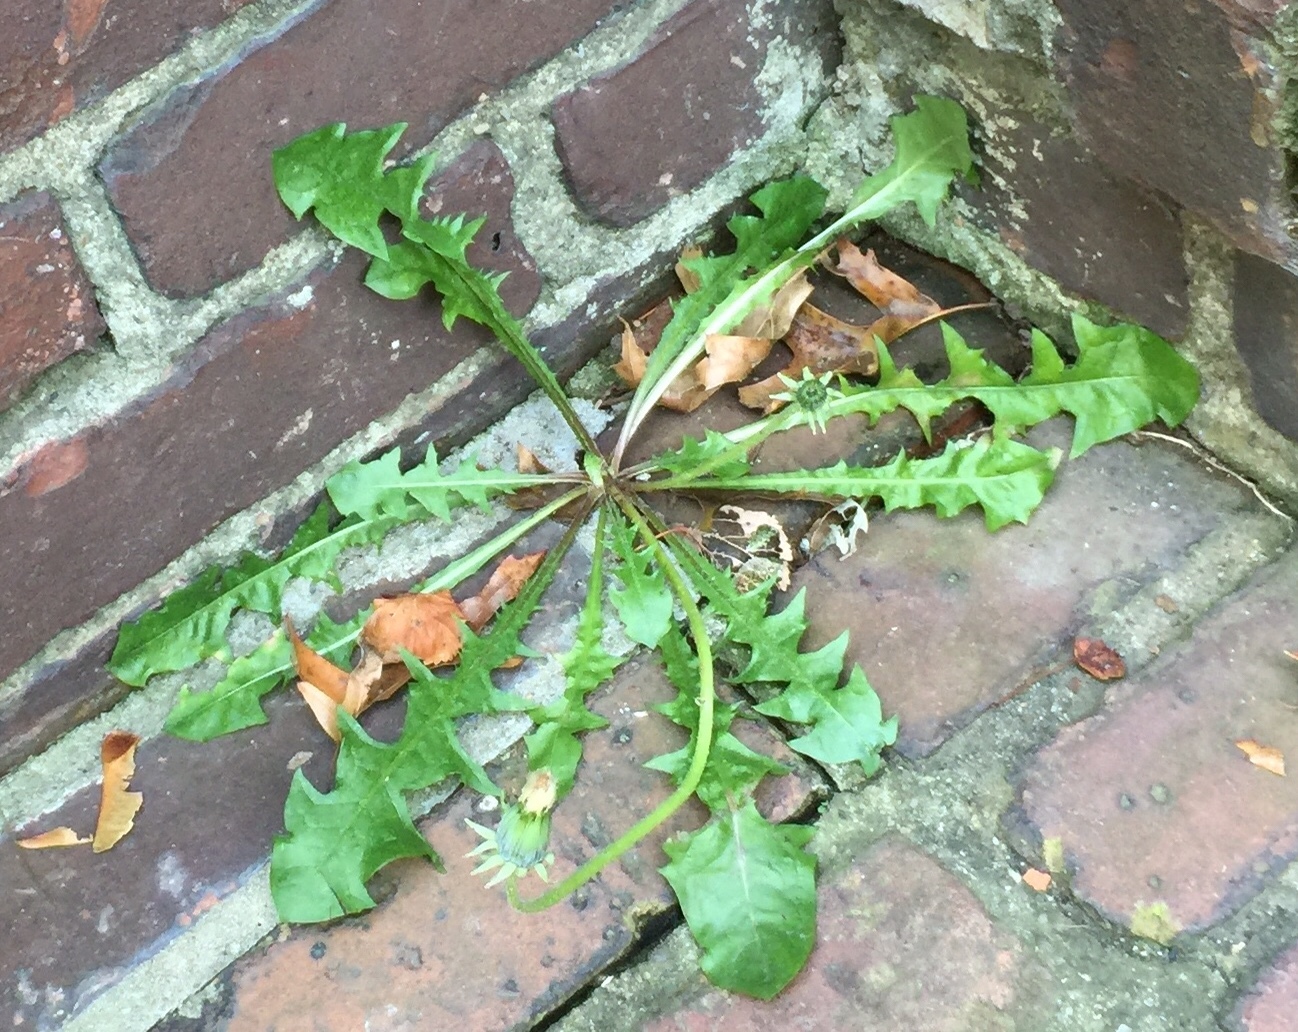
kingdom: Plantae
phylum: Tracheophyta
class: Magnoliopsida
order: Asterales
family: Asteraceae
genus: Taraxacum
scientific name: Taraxacum officinale
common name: Common dandelion
